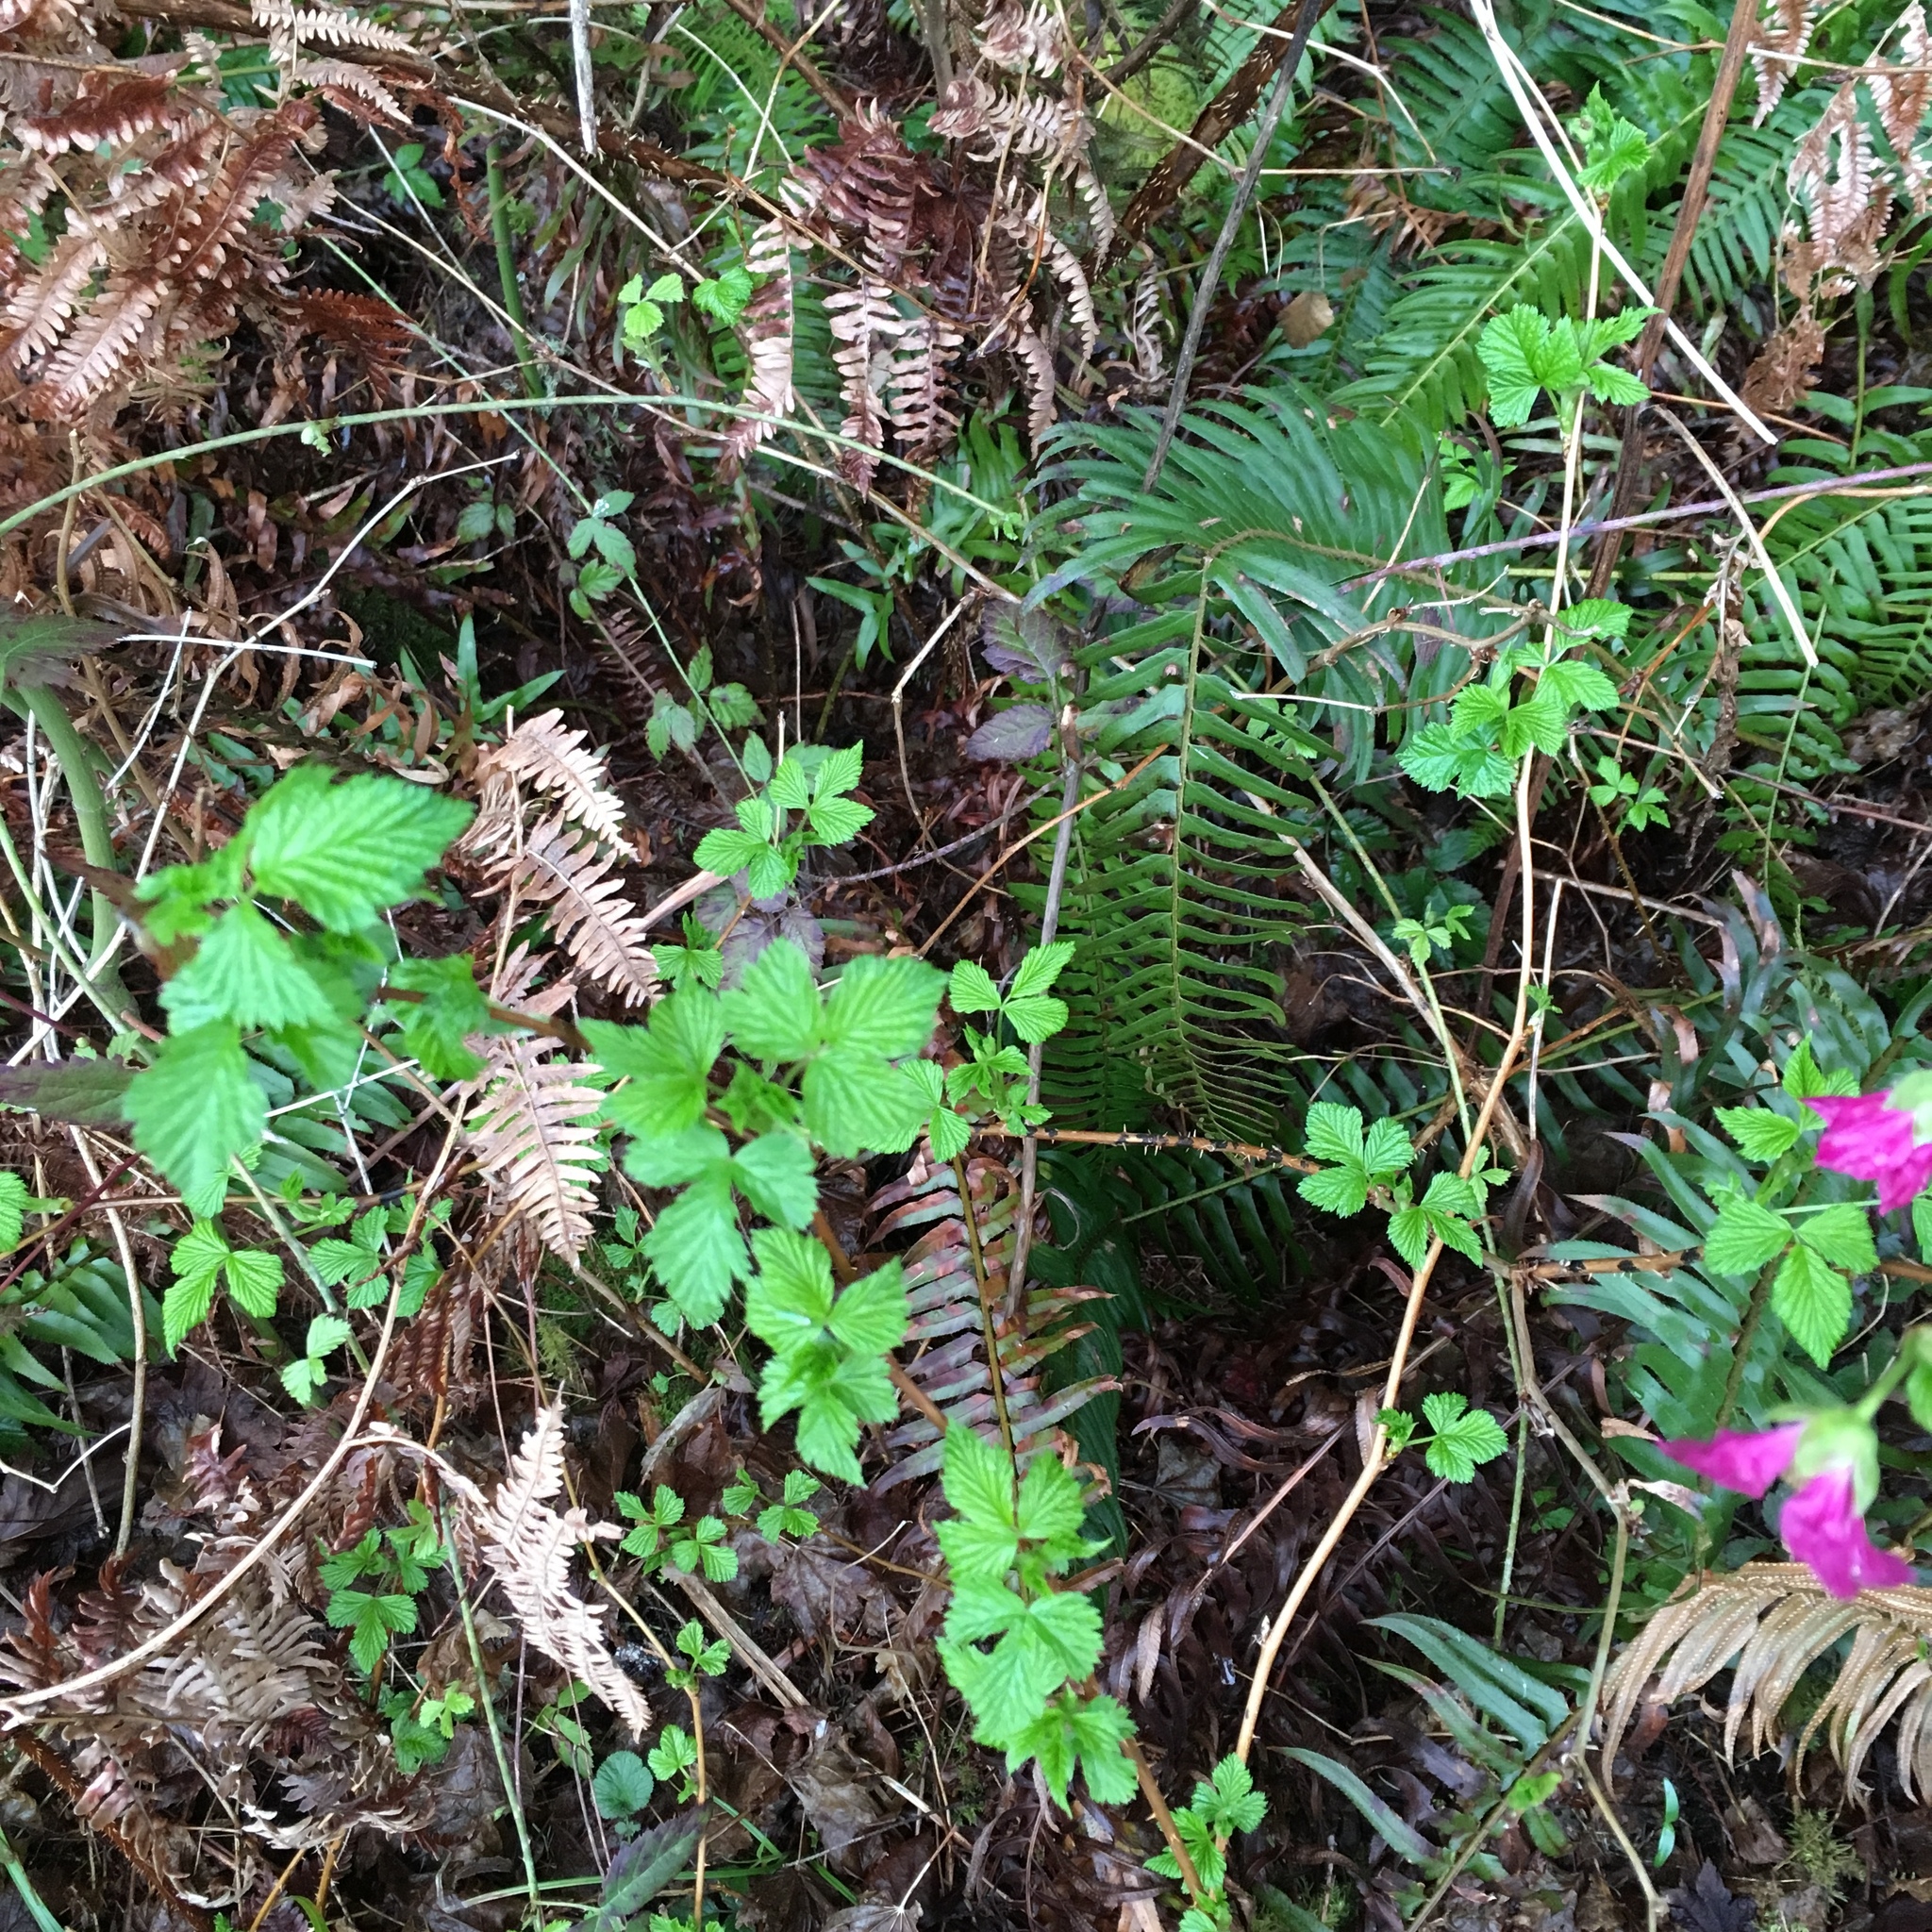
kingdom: Plantae
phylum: Tracheophyta
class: Magnoliopsida
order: Rosales
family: Rosaceae
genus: Rubus
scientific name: Rubus spectabilis
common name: Salmonberry
